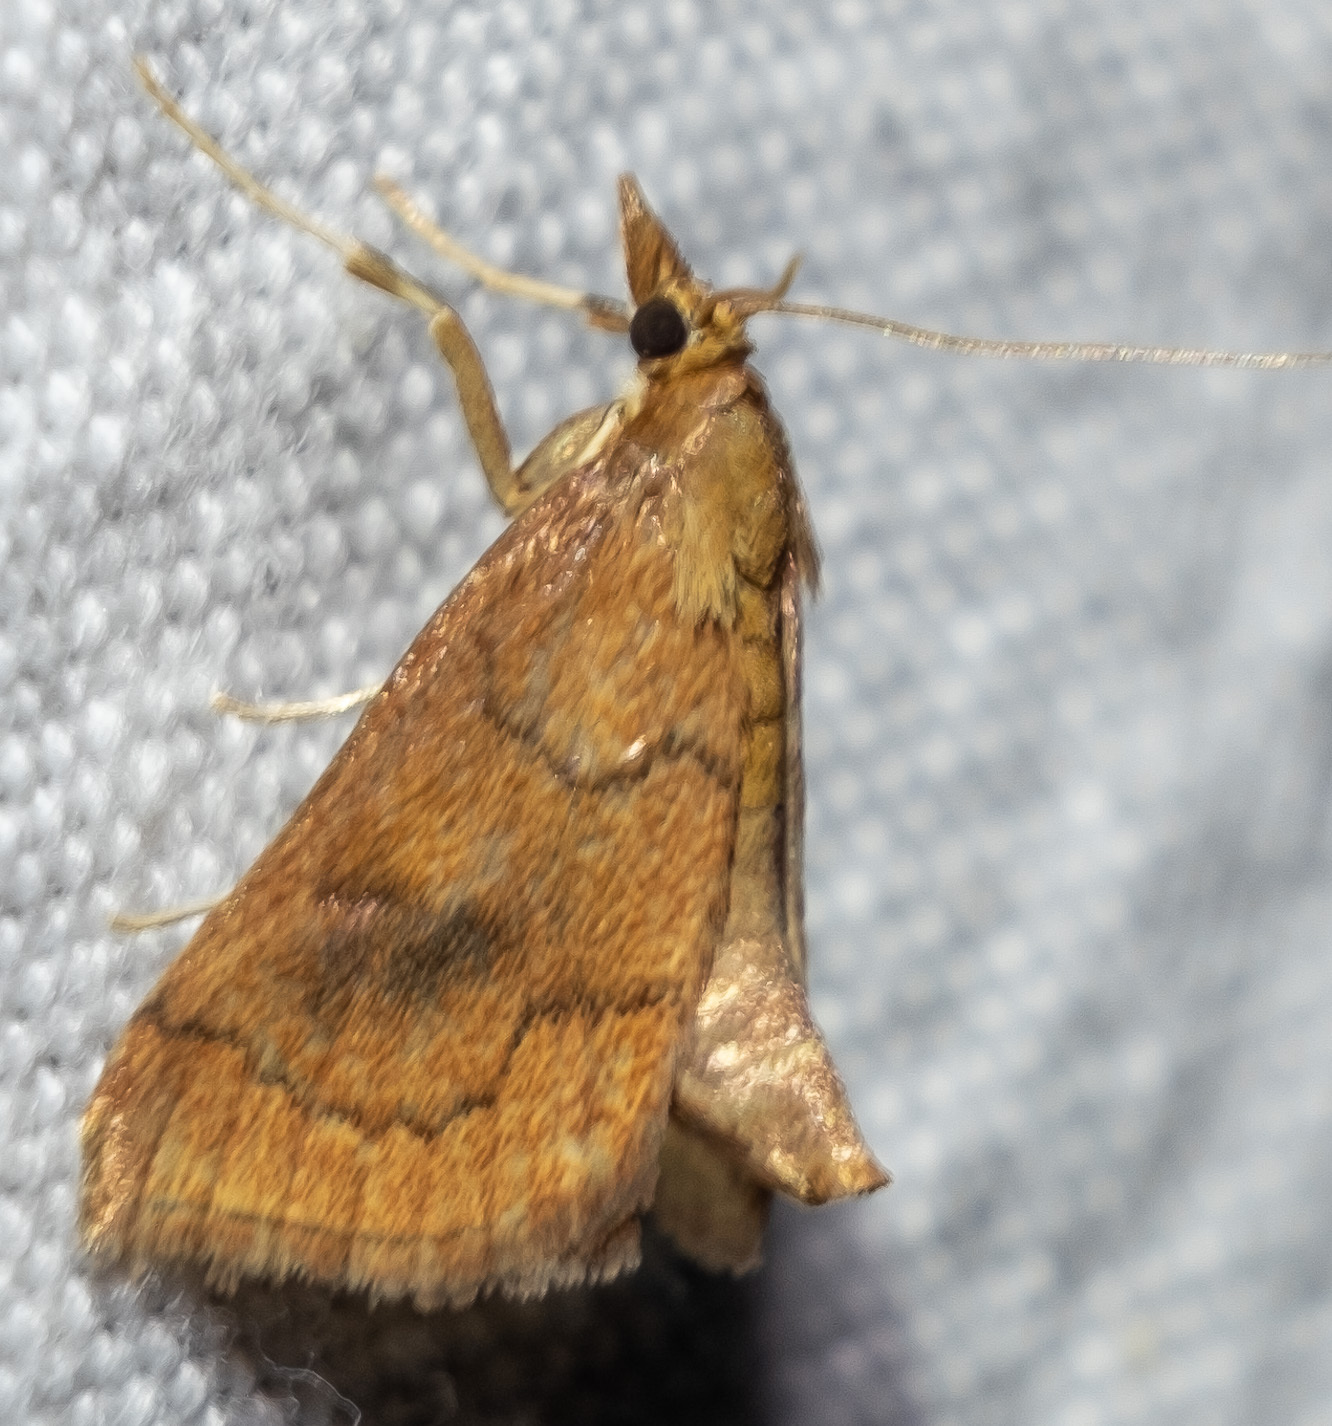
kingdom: Animalia
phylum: Arthropoda
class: Insecta
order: Lepidoptera
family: Crambidae
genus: Fumibotys
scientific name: Fumibotys fumalis
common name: Mint root borer moth
